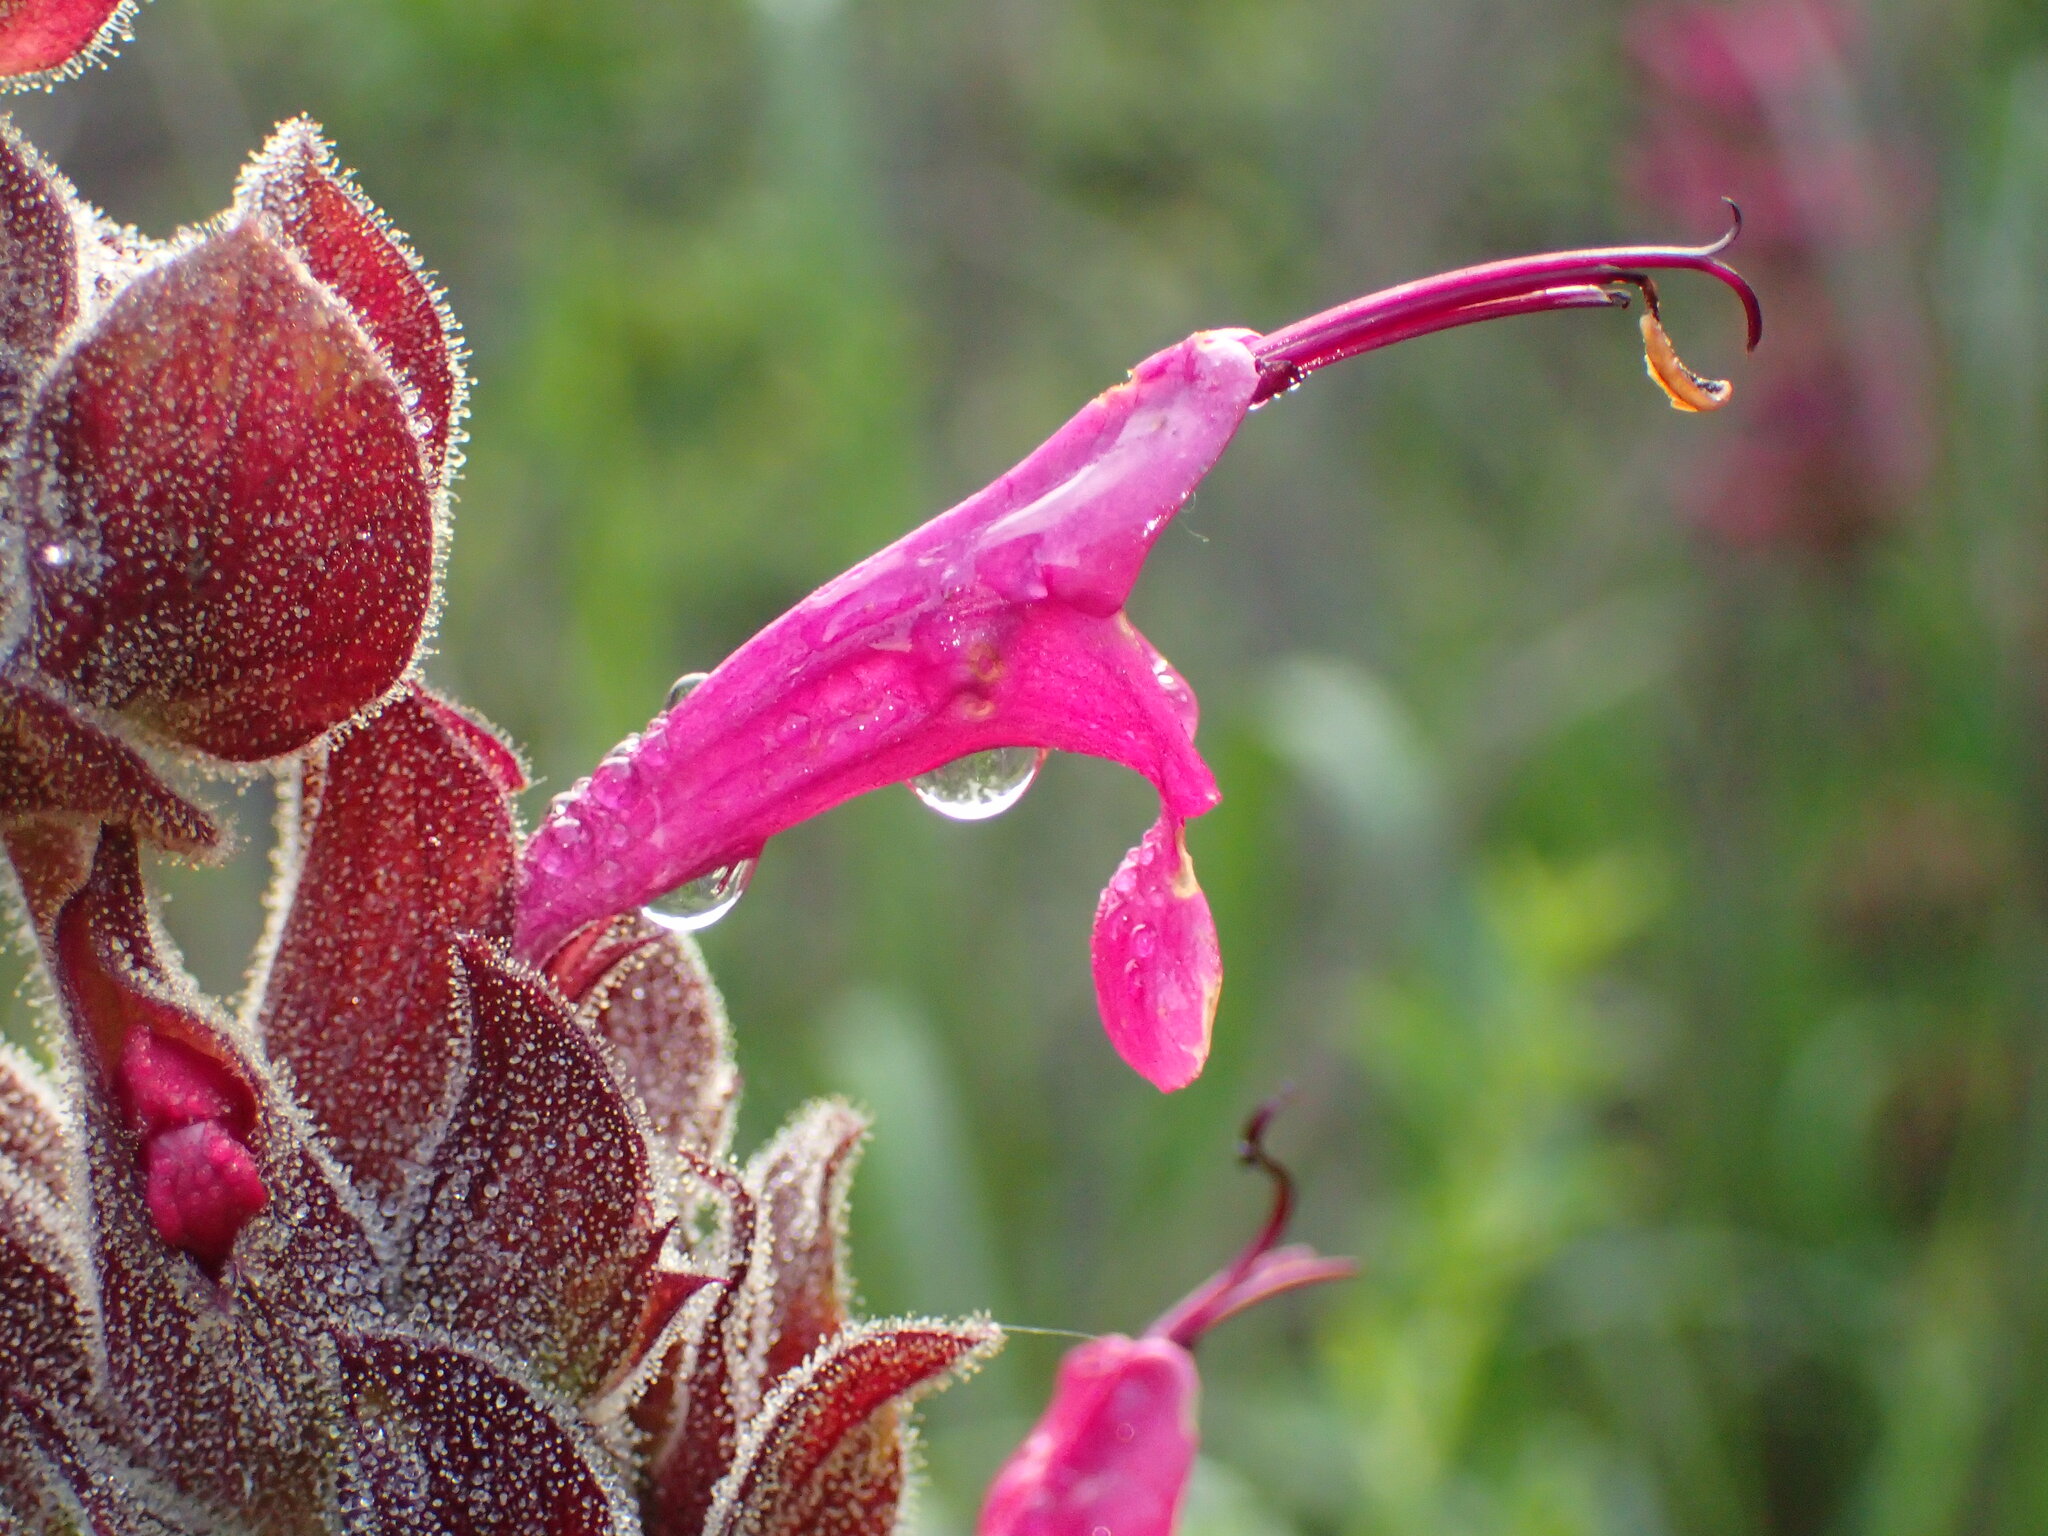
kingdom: Plantae
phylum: Tracheophyta
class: Magnoliopsida
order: Lamiales
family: Lamiaceae
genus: Salvia
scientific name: Salvia spathacea
